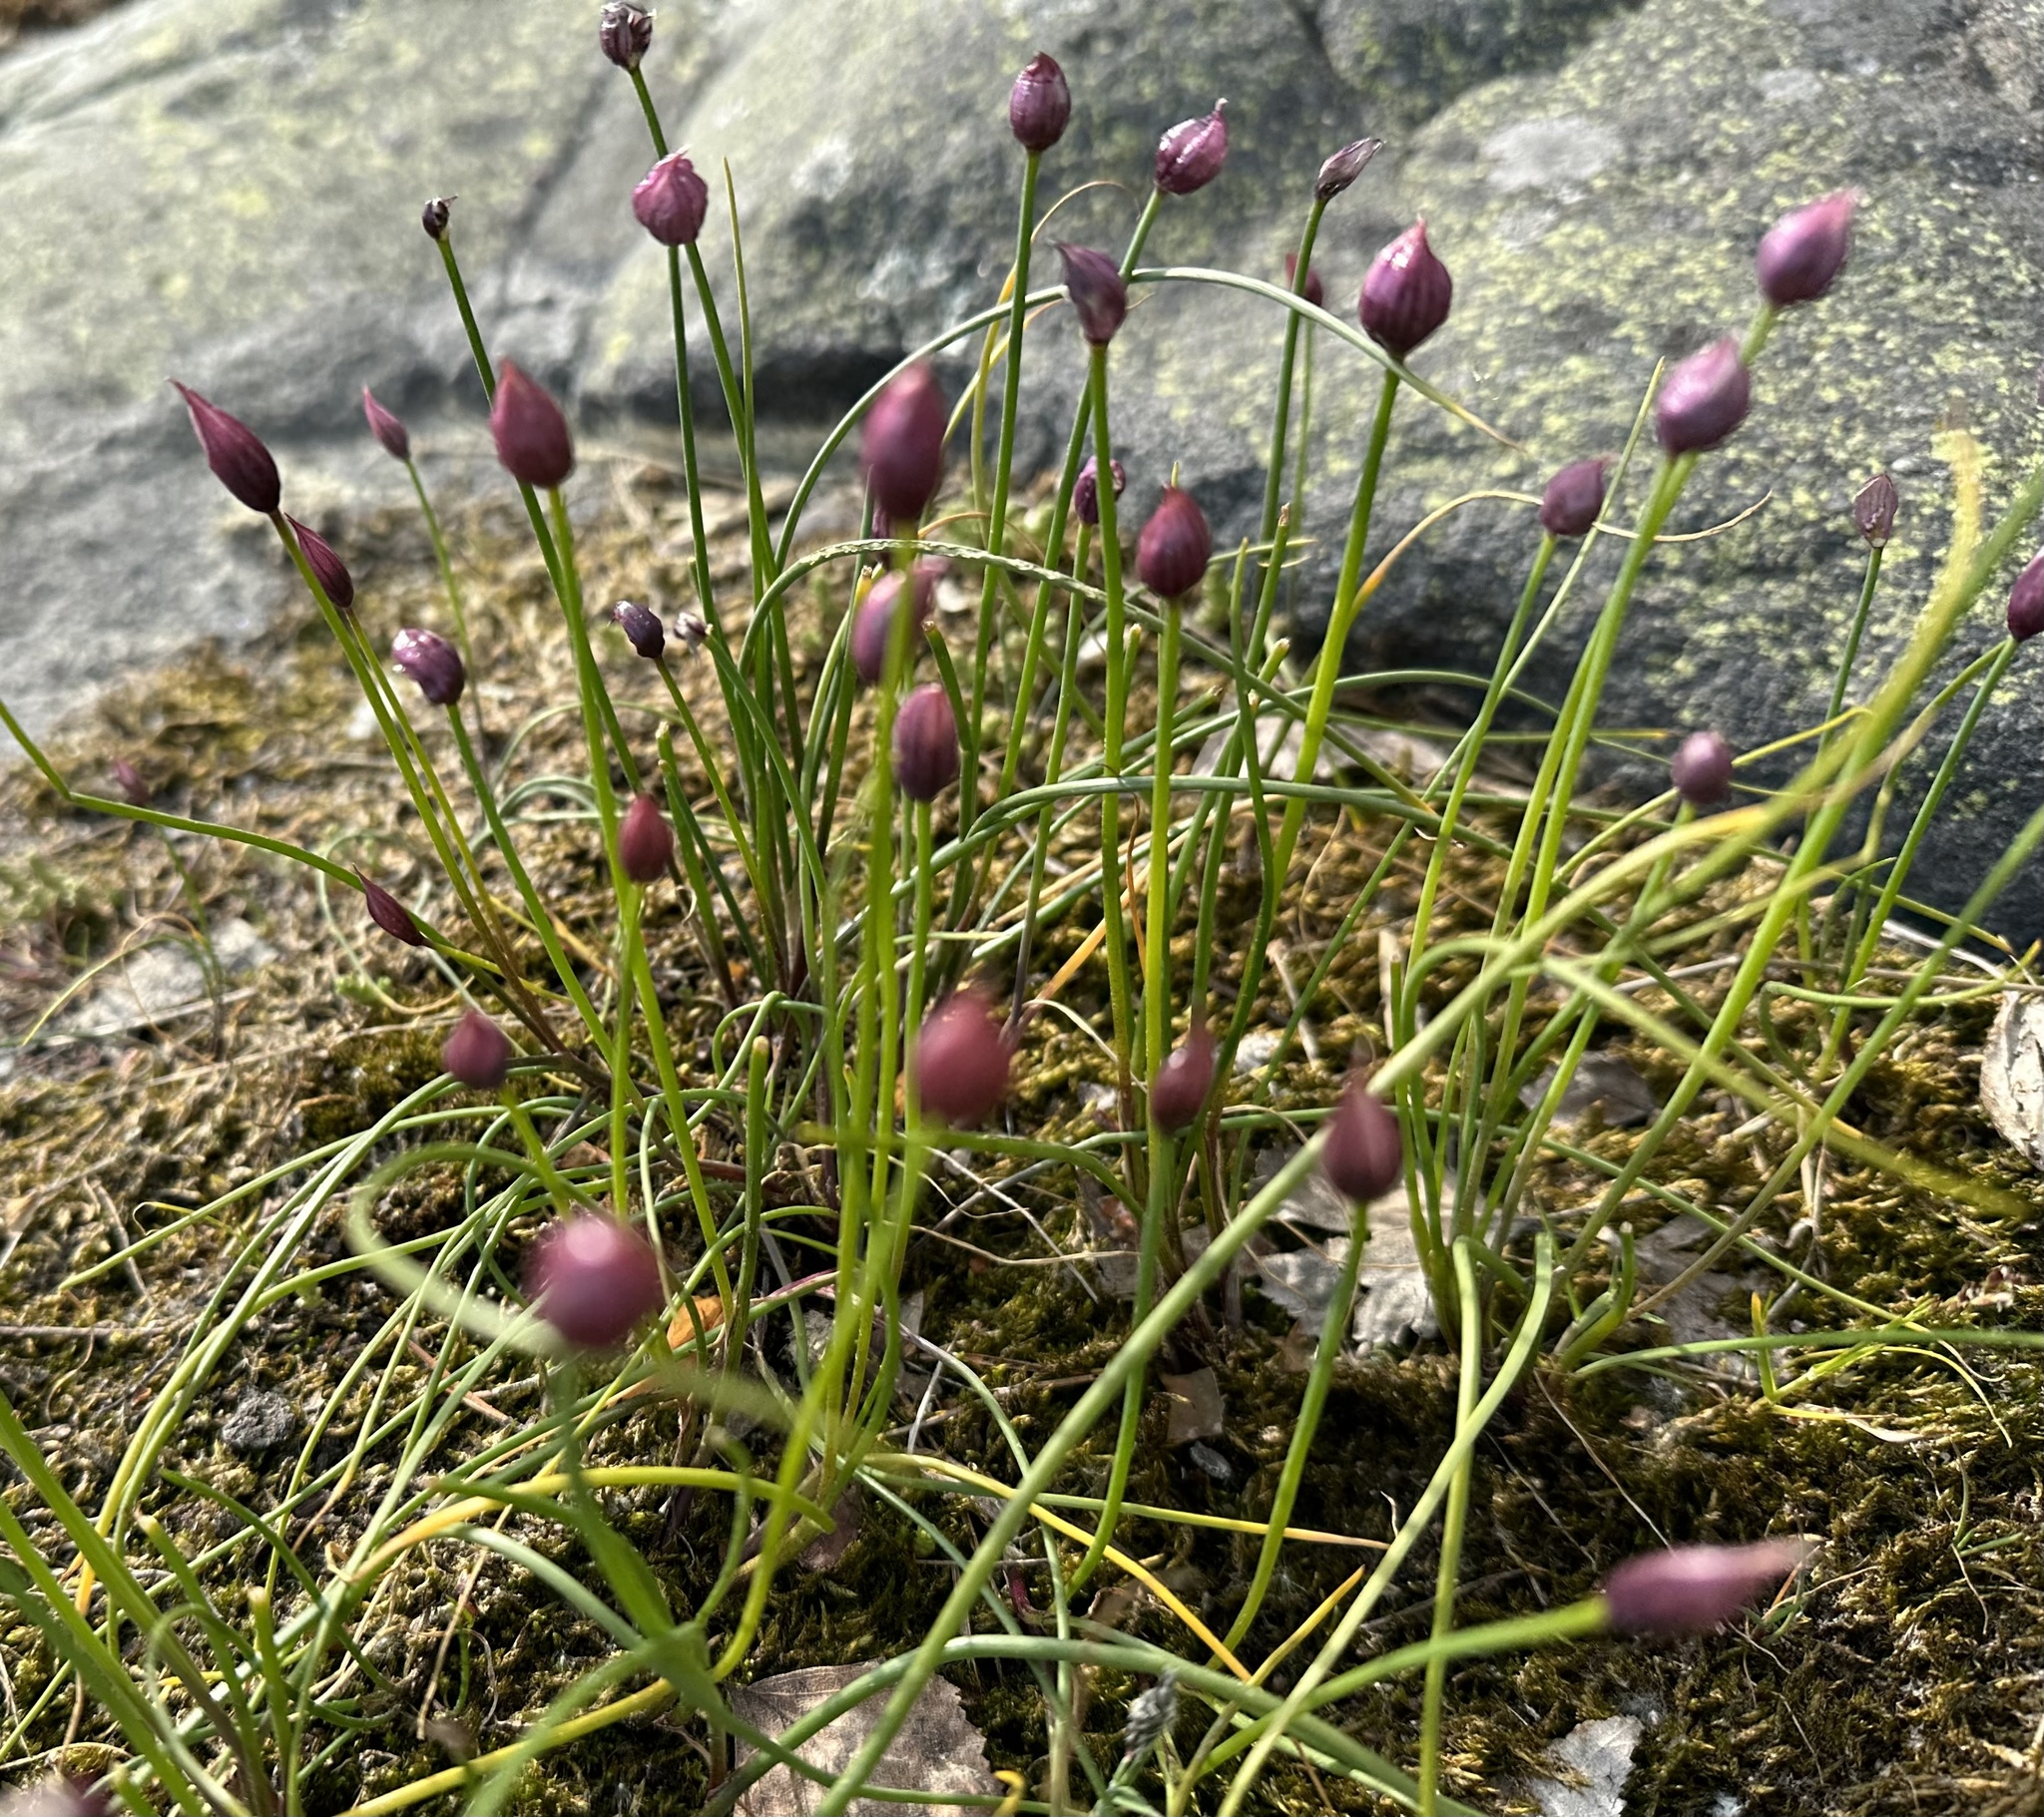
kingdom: Plantae
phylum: Tracheophyta
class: Liliopsida
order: Asparagales
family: Amaryllidaceae
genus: Allium
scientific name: Allium schoenoprasum
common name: Chives
